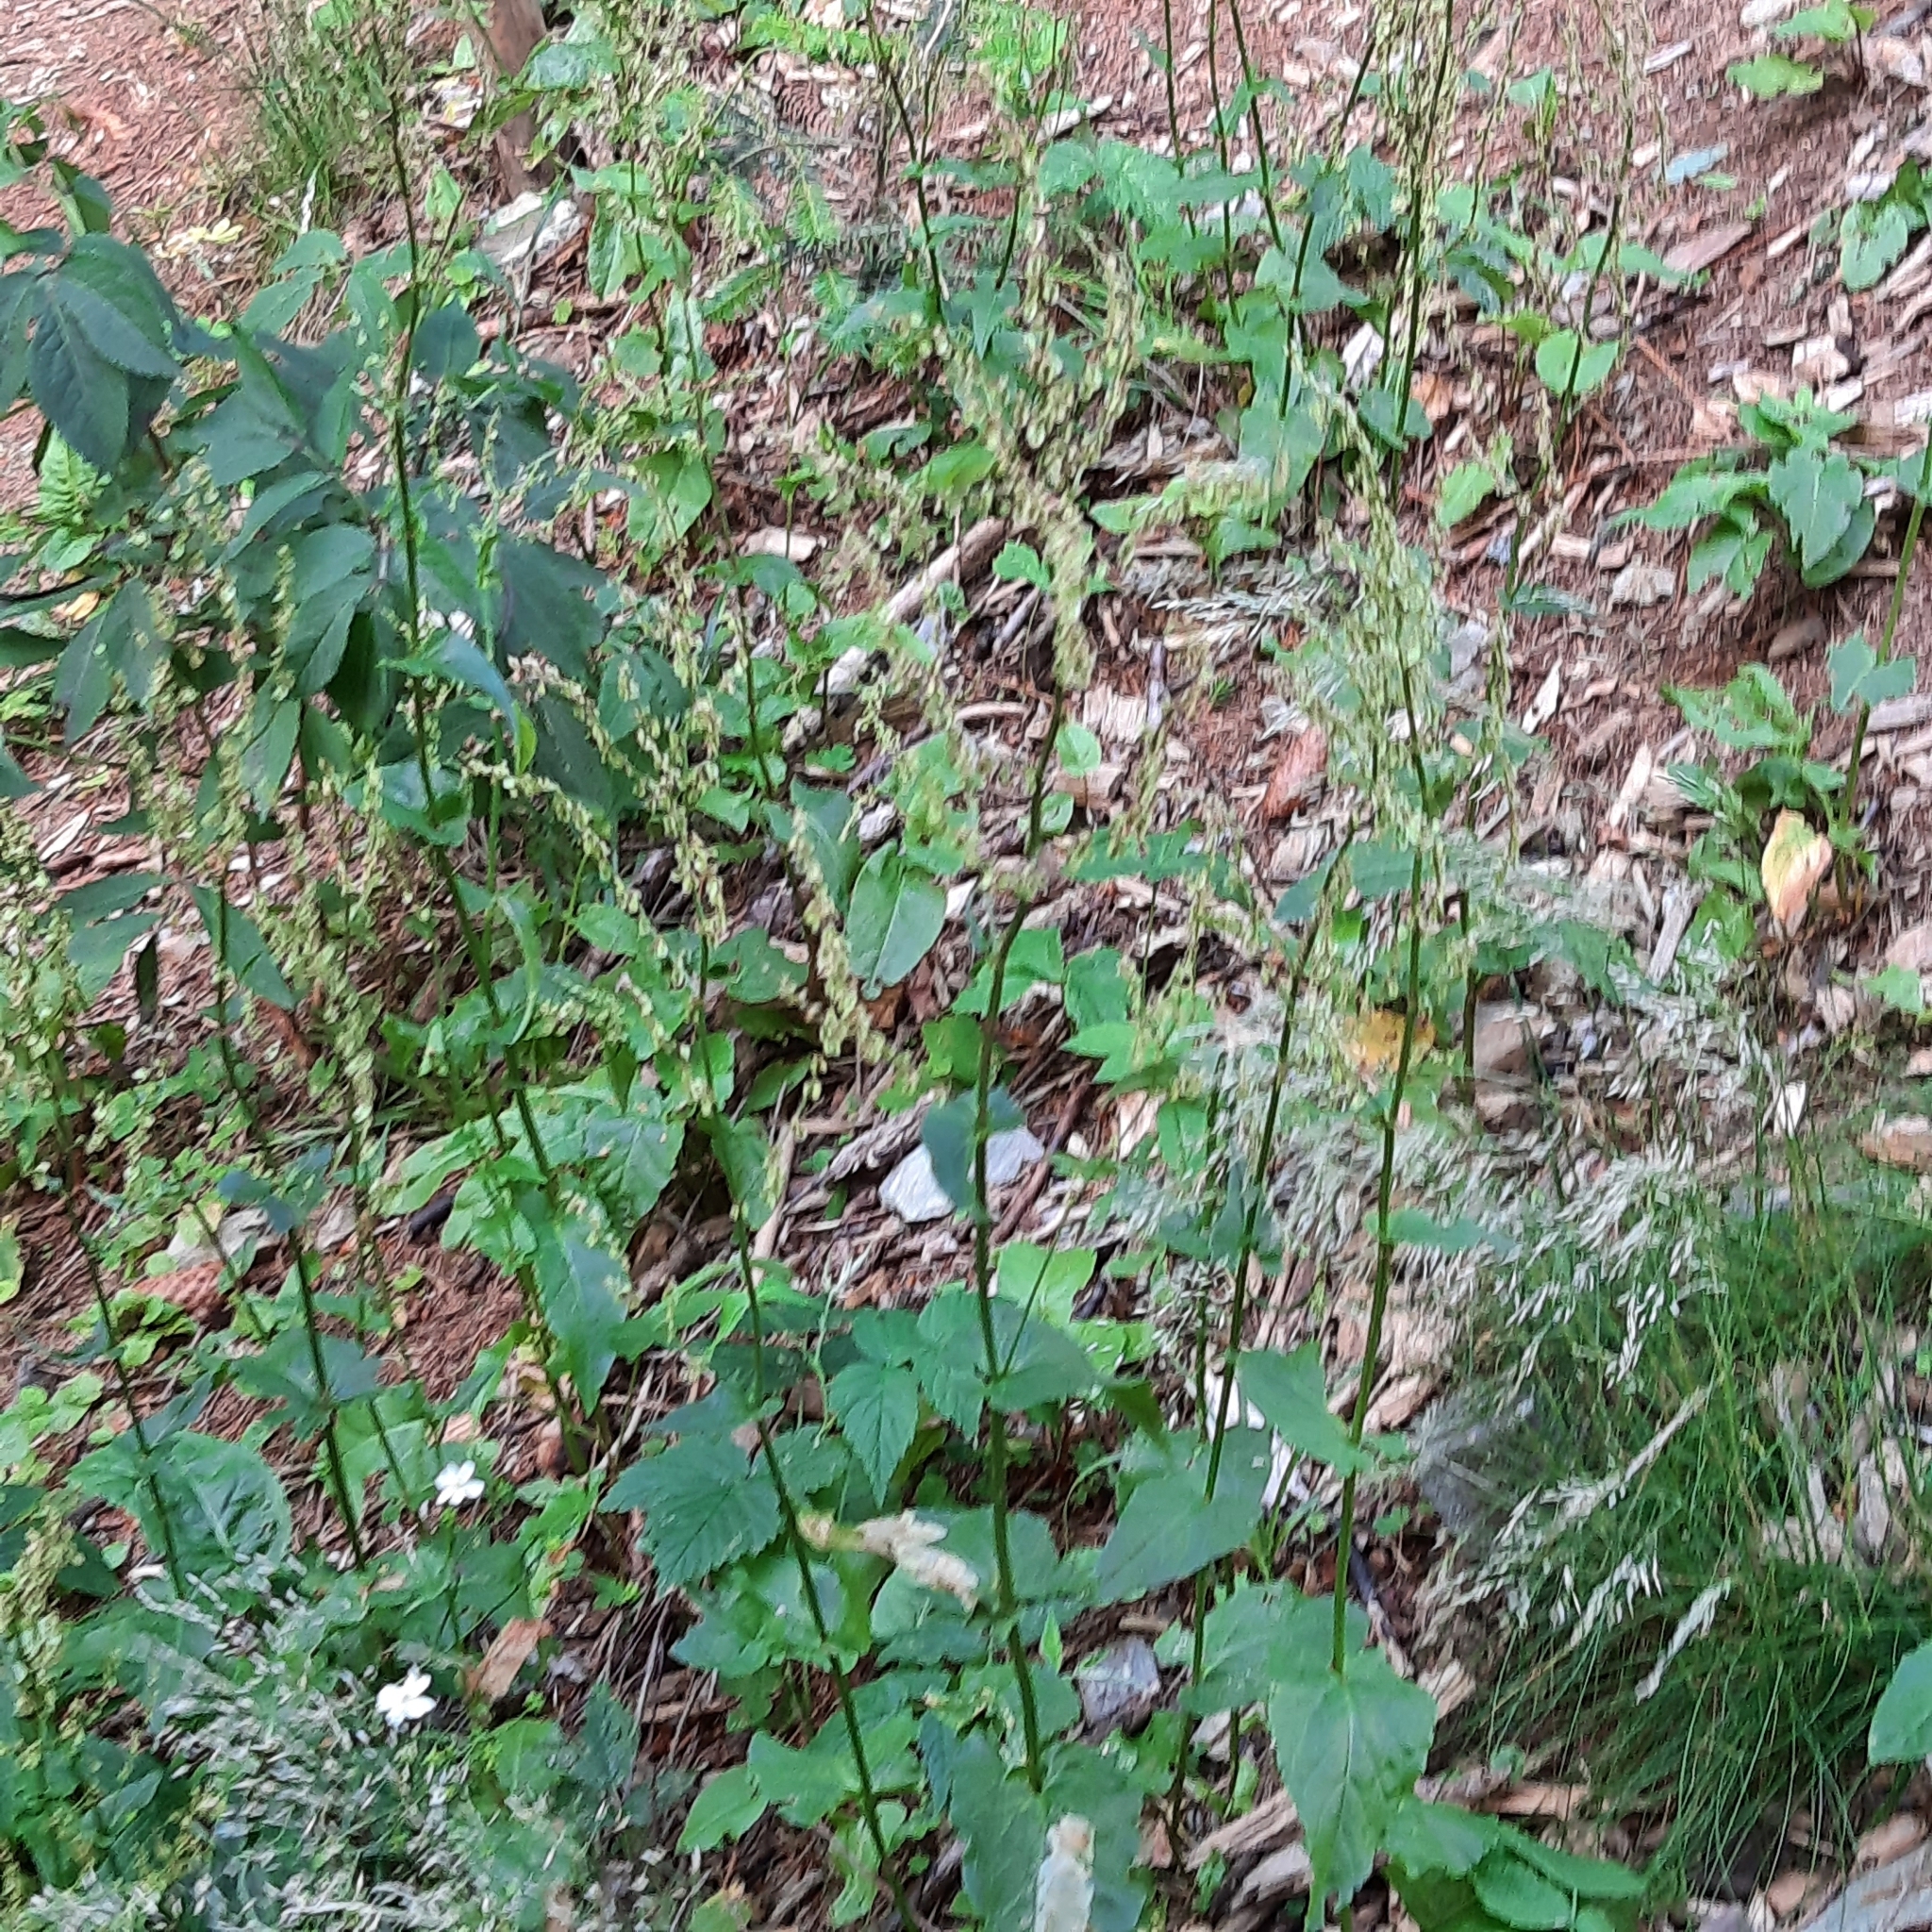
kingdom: Plantae
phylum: Tracheophyta
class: Magnoliopsida
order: Caryophyllales
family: Polygonaceae
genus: Rumex
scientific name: Rumex
